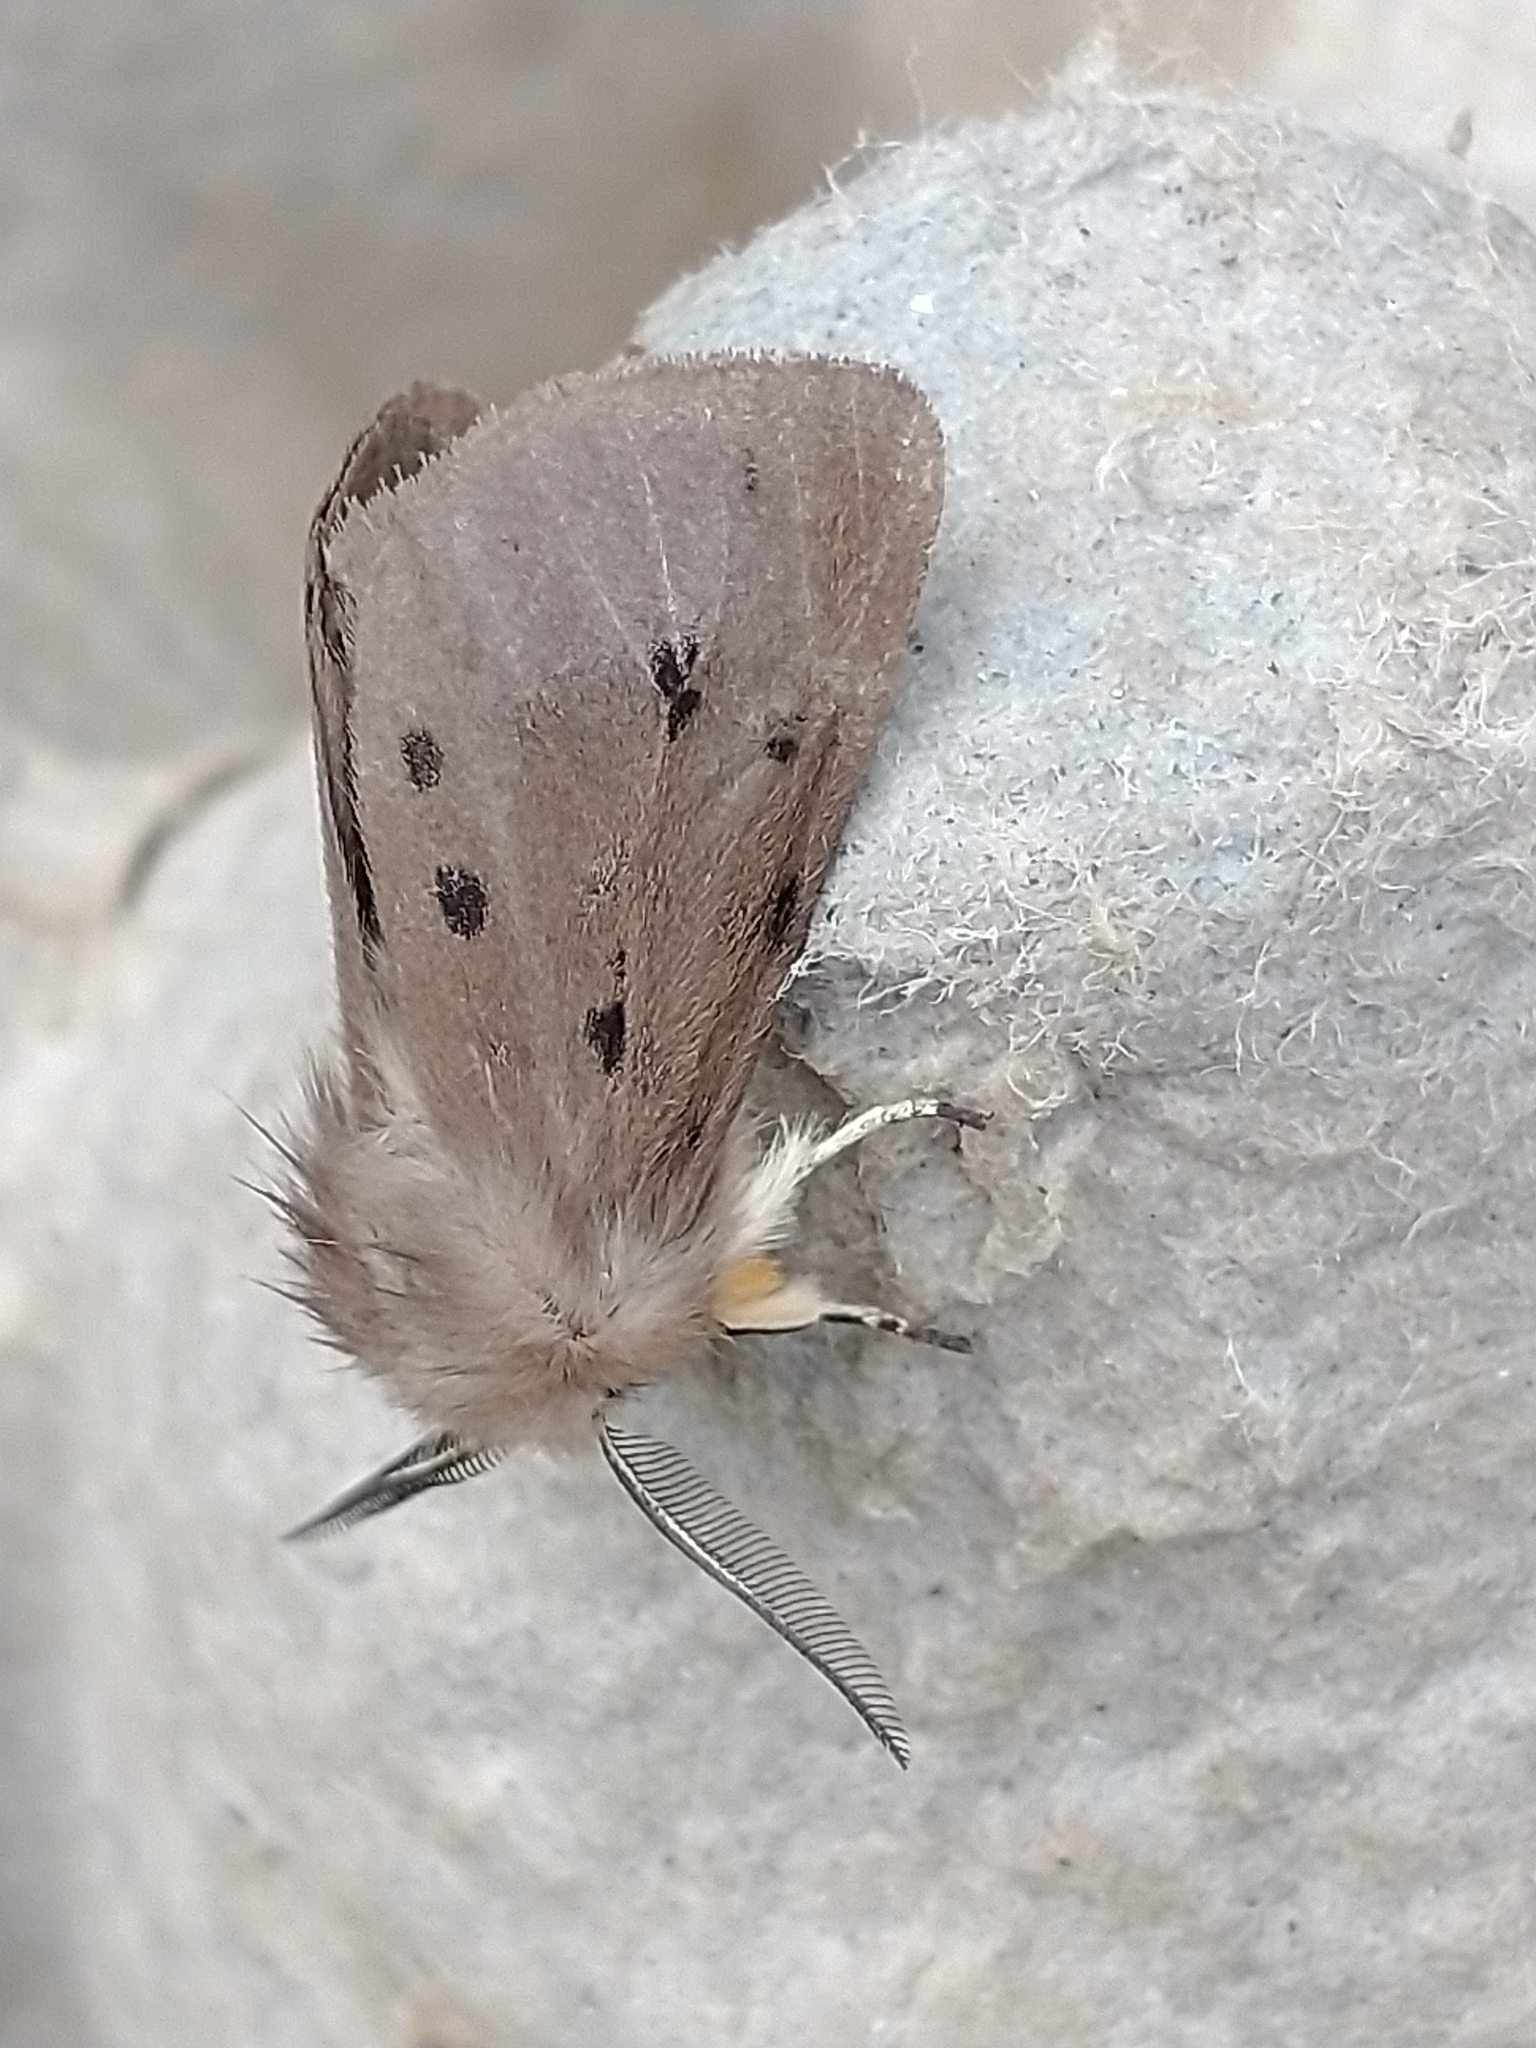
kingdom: Animalia
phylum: Arthropoda
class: Insecta
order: Lepidoptera
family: Erebidae
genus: Diaphora
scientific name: Diaphora mendica
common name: Muslin moth
